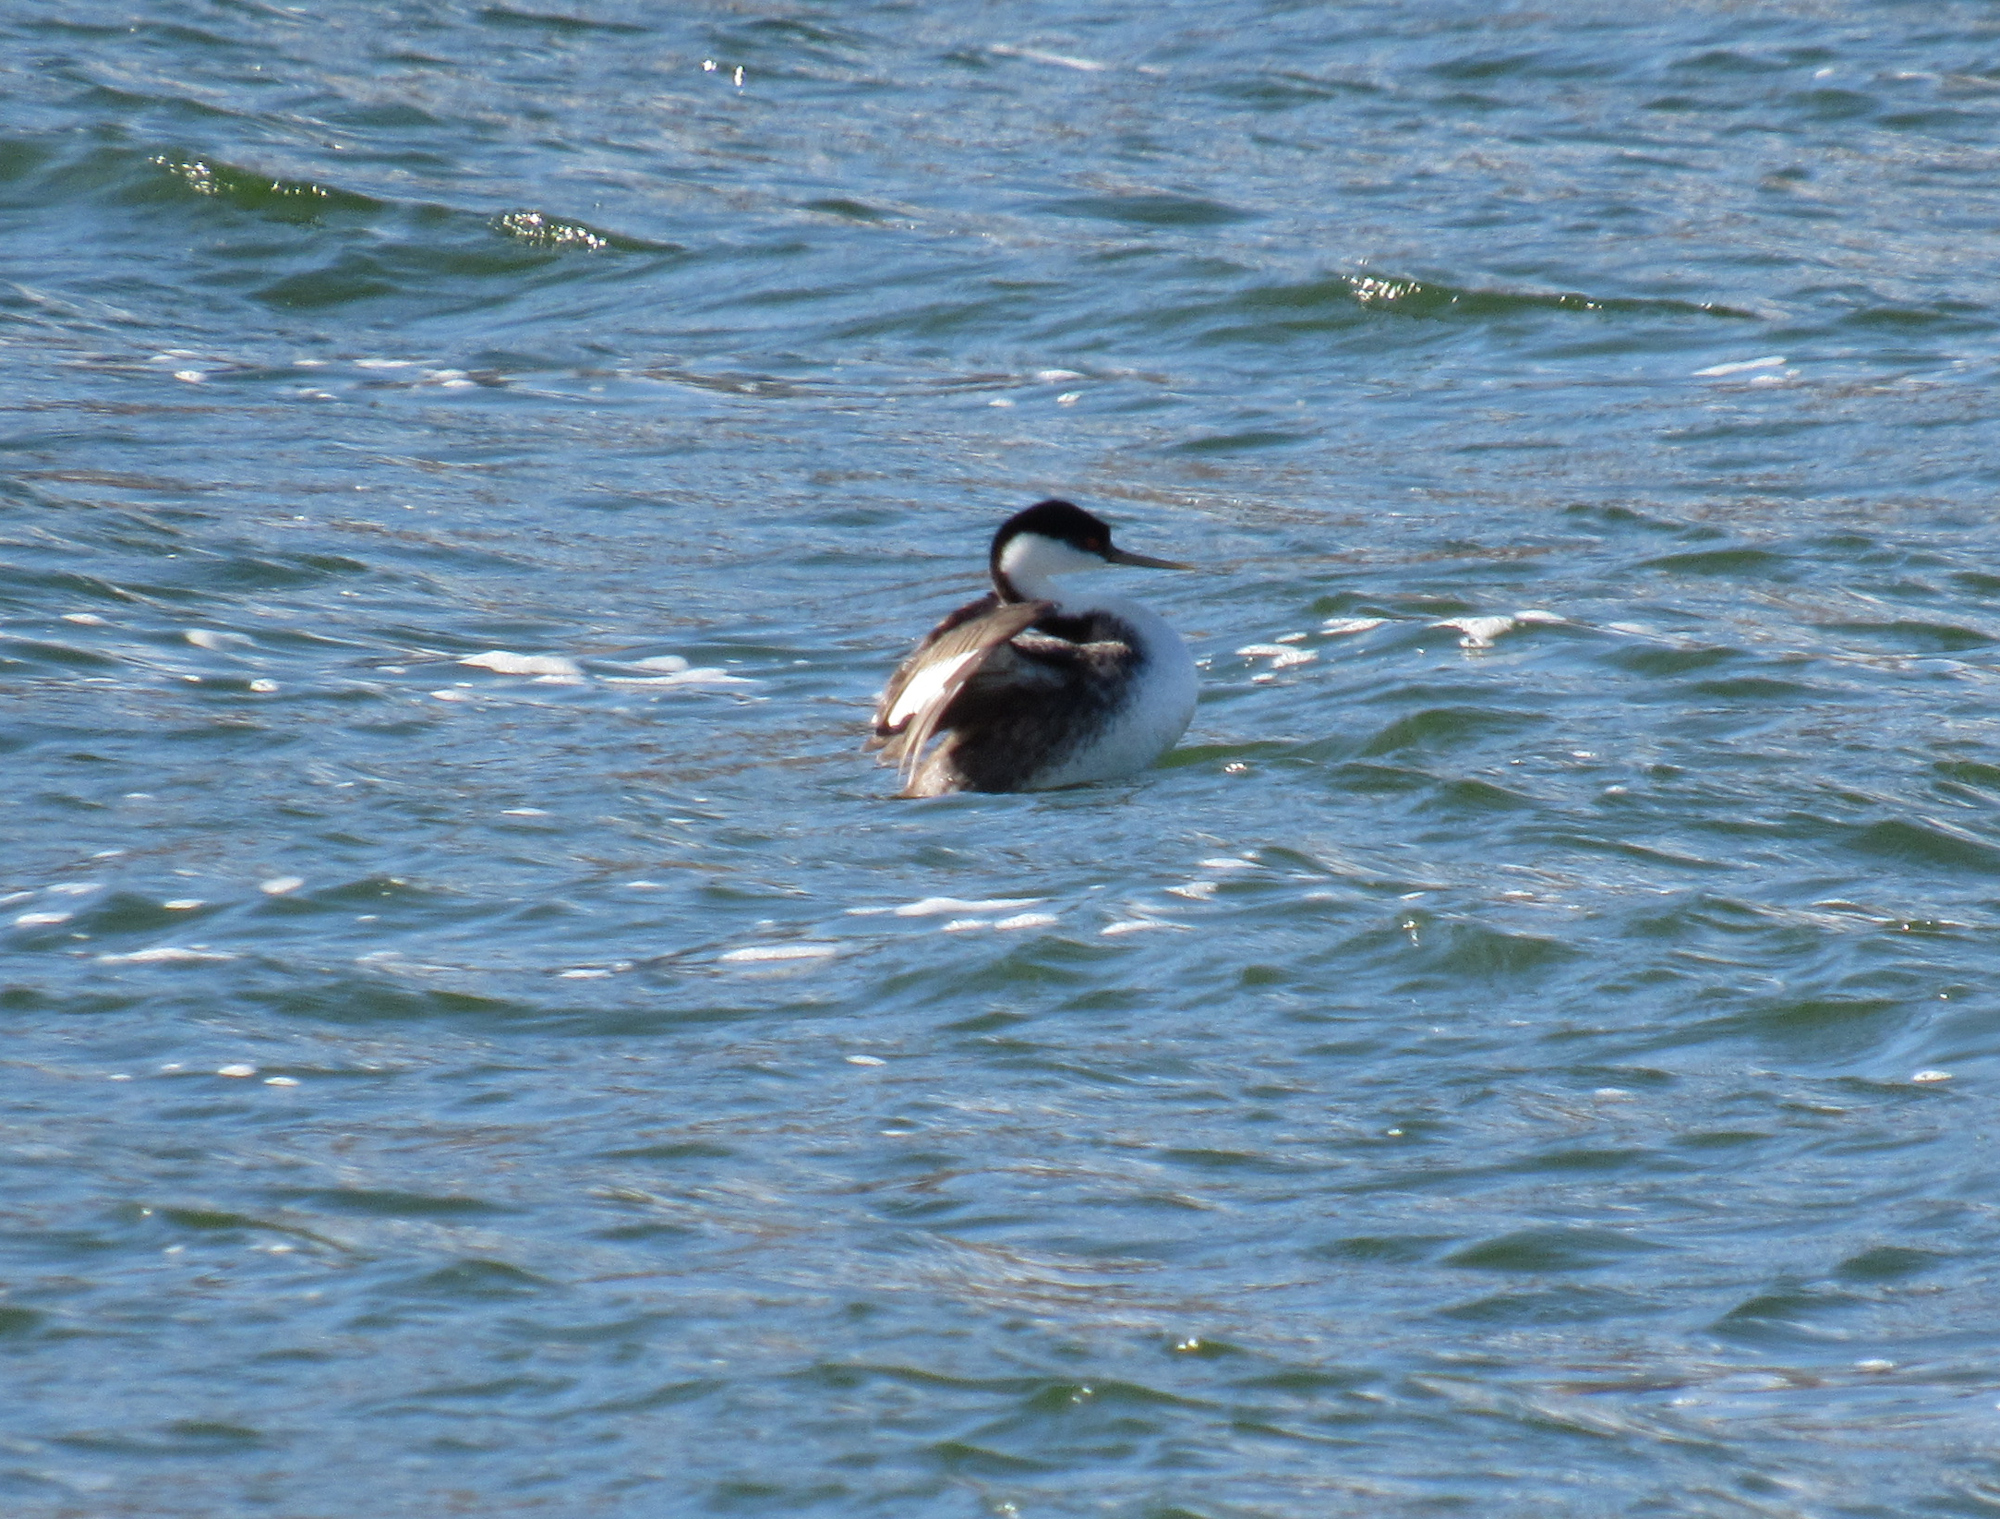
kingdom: Animalia
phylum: Chordata
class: Aves
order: Podicipediformes
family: Podicipedidae
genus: Aechmophorus
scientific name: Aechmophorus occidentalis
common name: Western grebe
